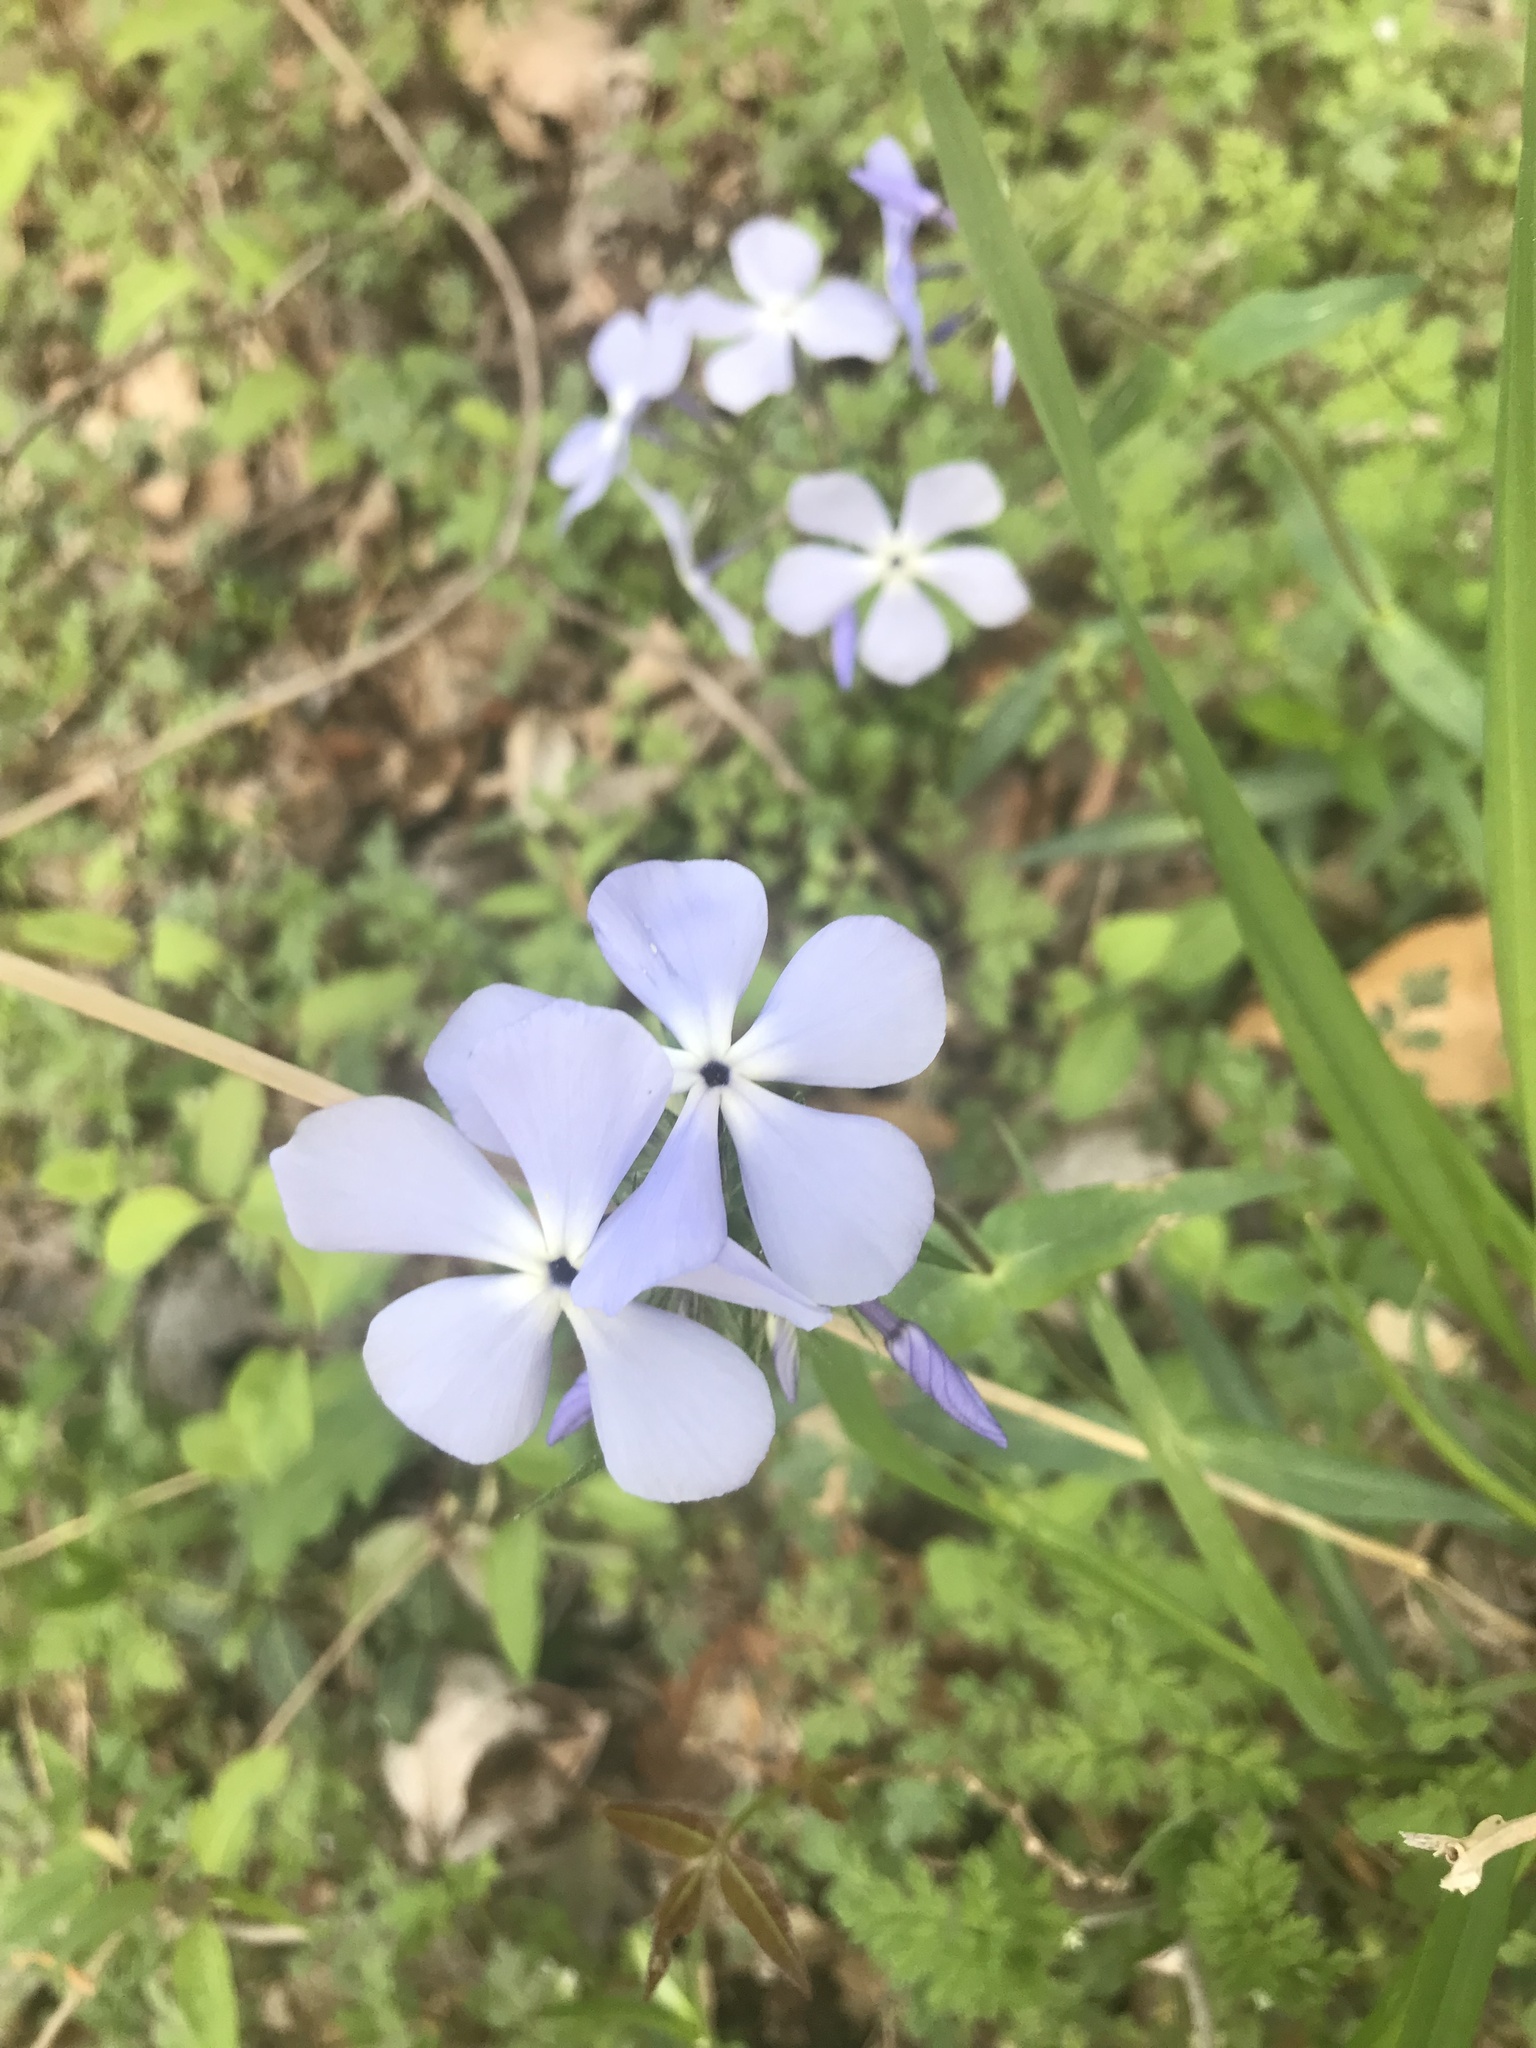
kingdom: Plantae
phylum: Tracheophyta
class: Magnoliopsida
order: Ericales
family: Polemoniaceae
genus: Phlox
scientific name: Phlox divaricata
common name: Blue phlox
